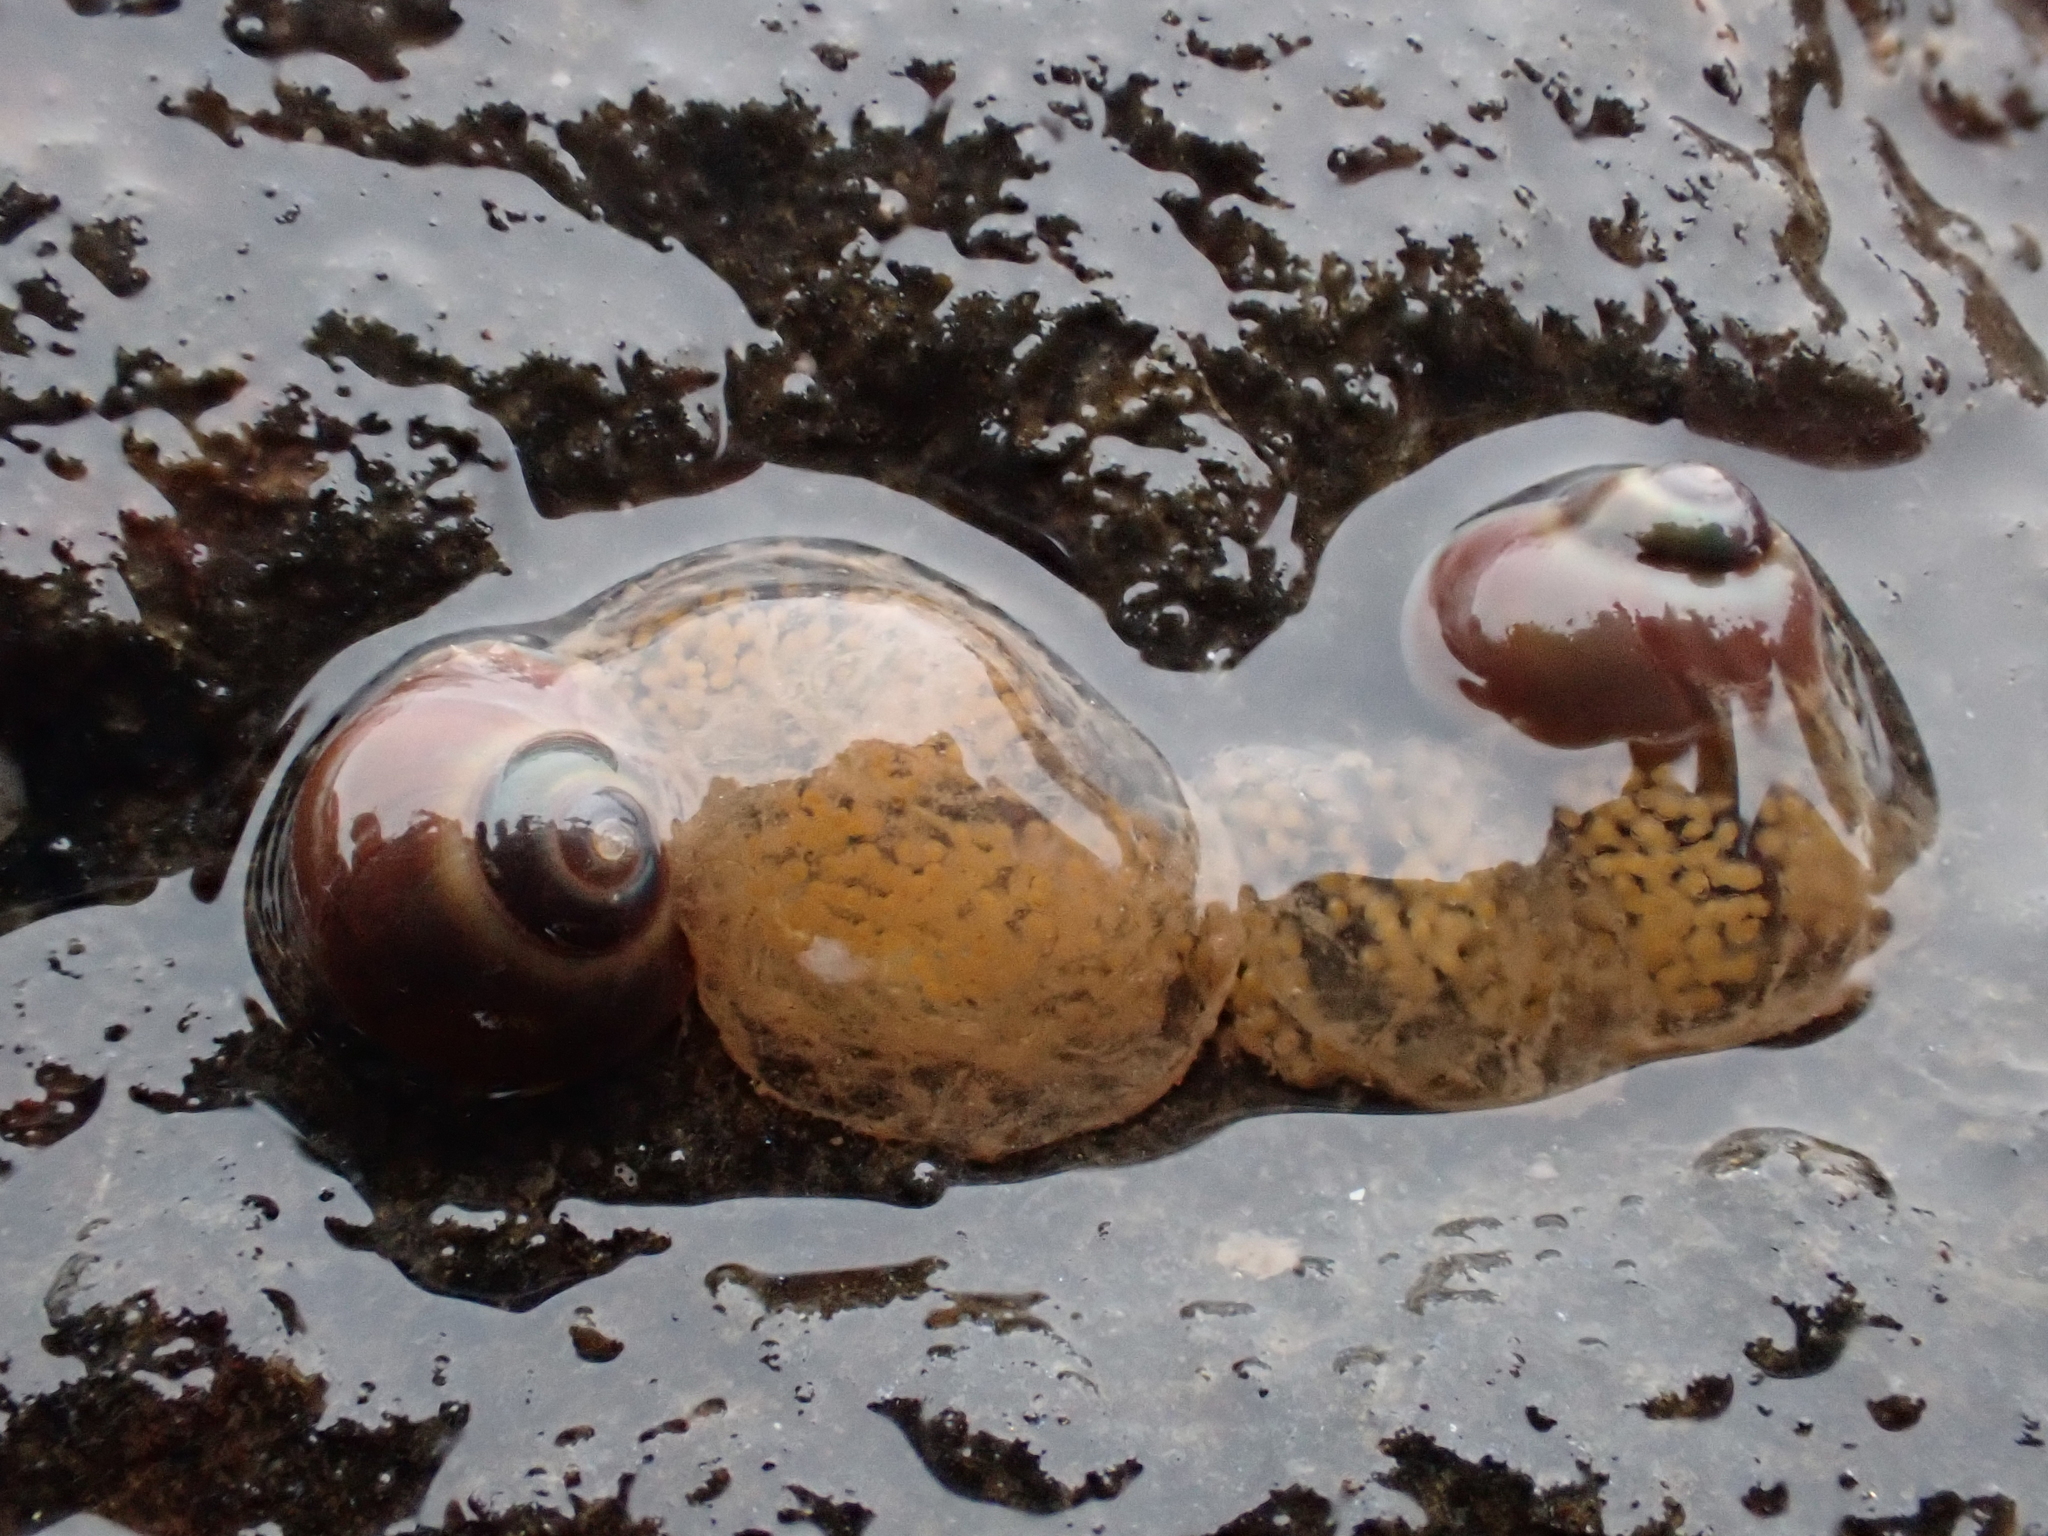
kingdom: Animalia
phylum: Mollusca
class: Gastropoda
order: Trochida
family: Margaritidae
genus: Margarites
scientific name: Margarites helicinus
